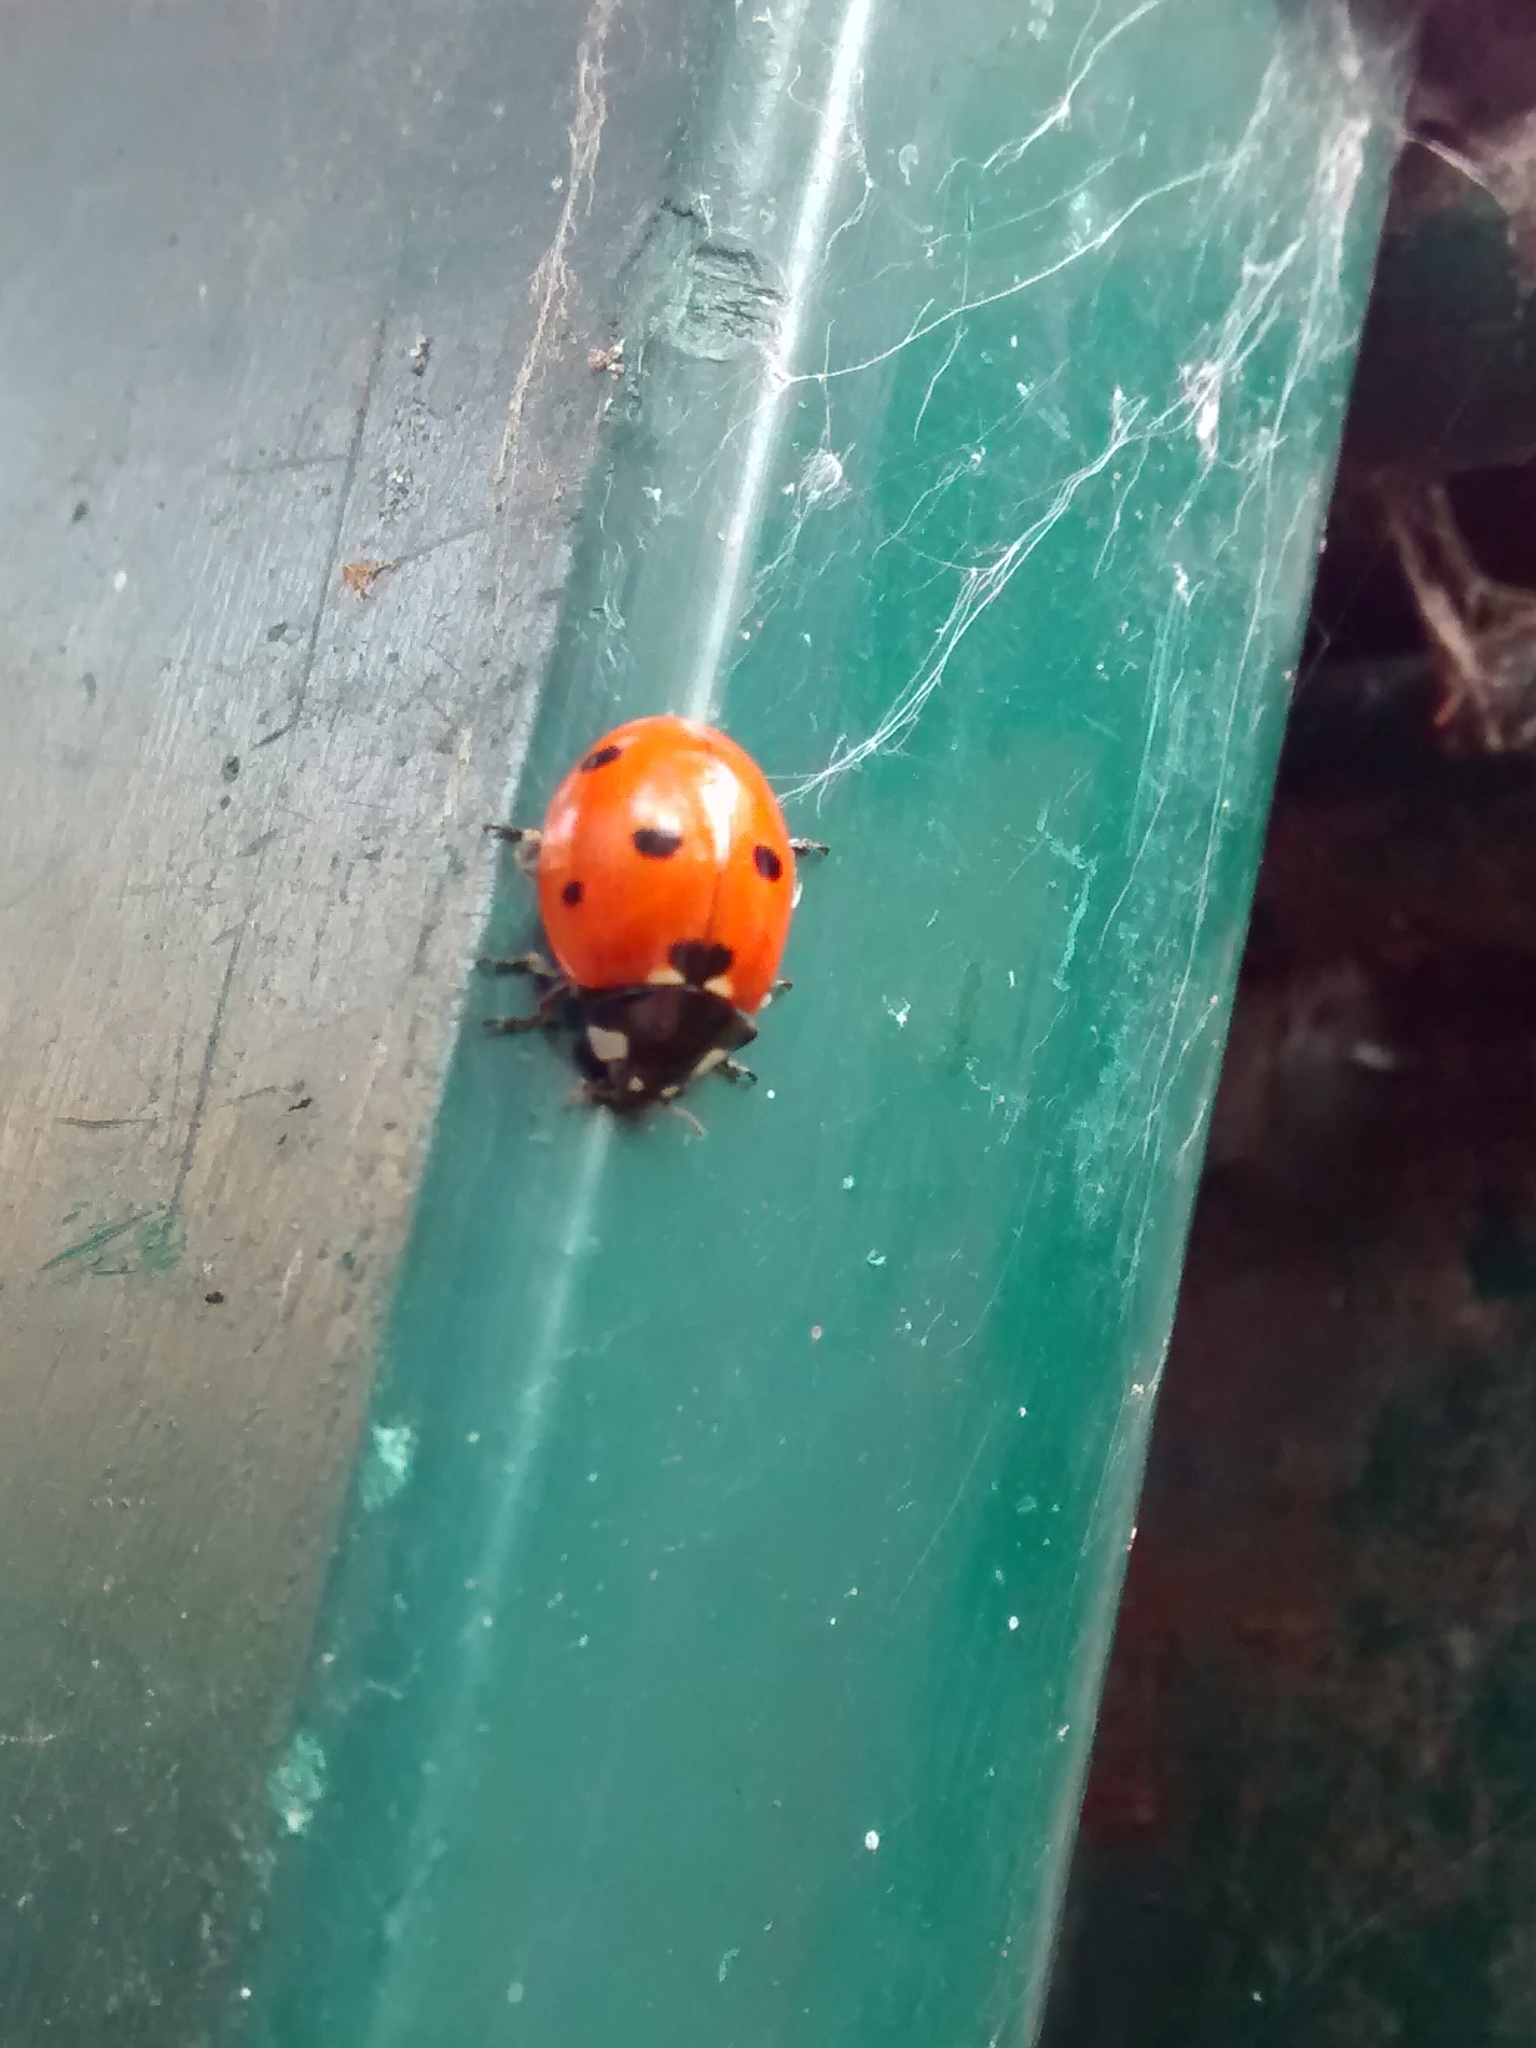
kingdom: Animalia
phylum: Arthropoda
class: Insecta
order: Coleoptera
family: Coccinellidae
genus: Coccinella
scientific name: Coccinella septempunctata
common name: Sevenspotted lady beetle
